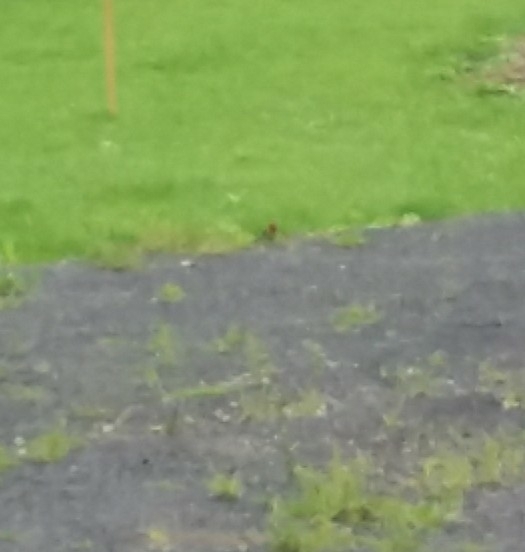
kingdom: Animalia
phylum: Chordata
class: Aves
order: Psittaciformes
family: Psittacidae
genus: Platycercus
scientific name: Platycercus eximius
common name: Eastern rosella
